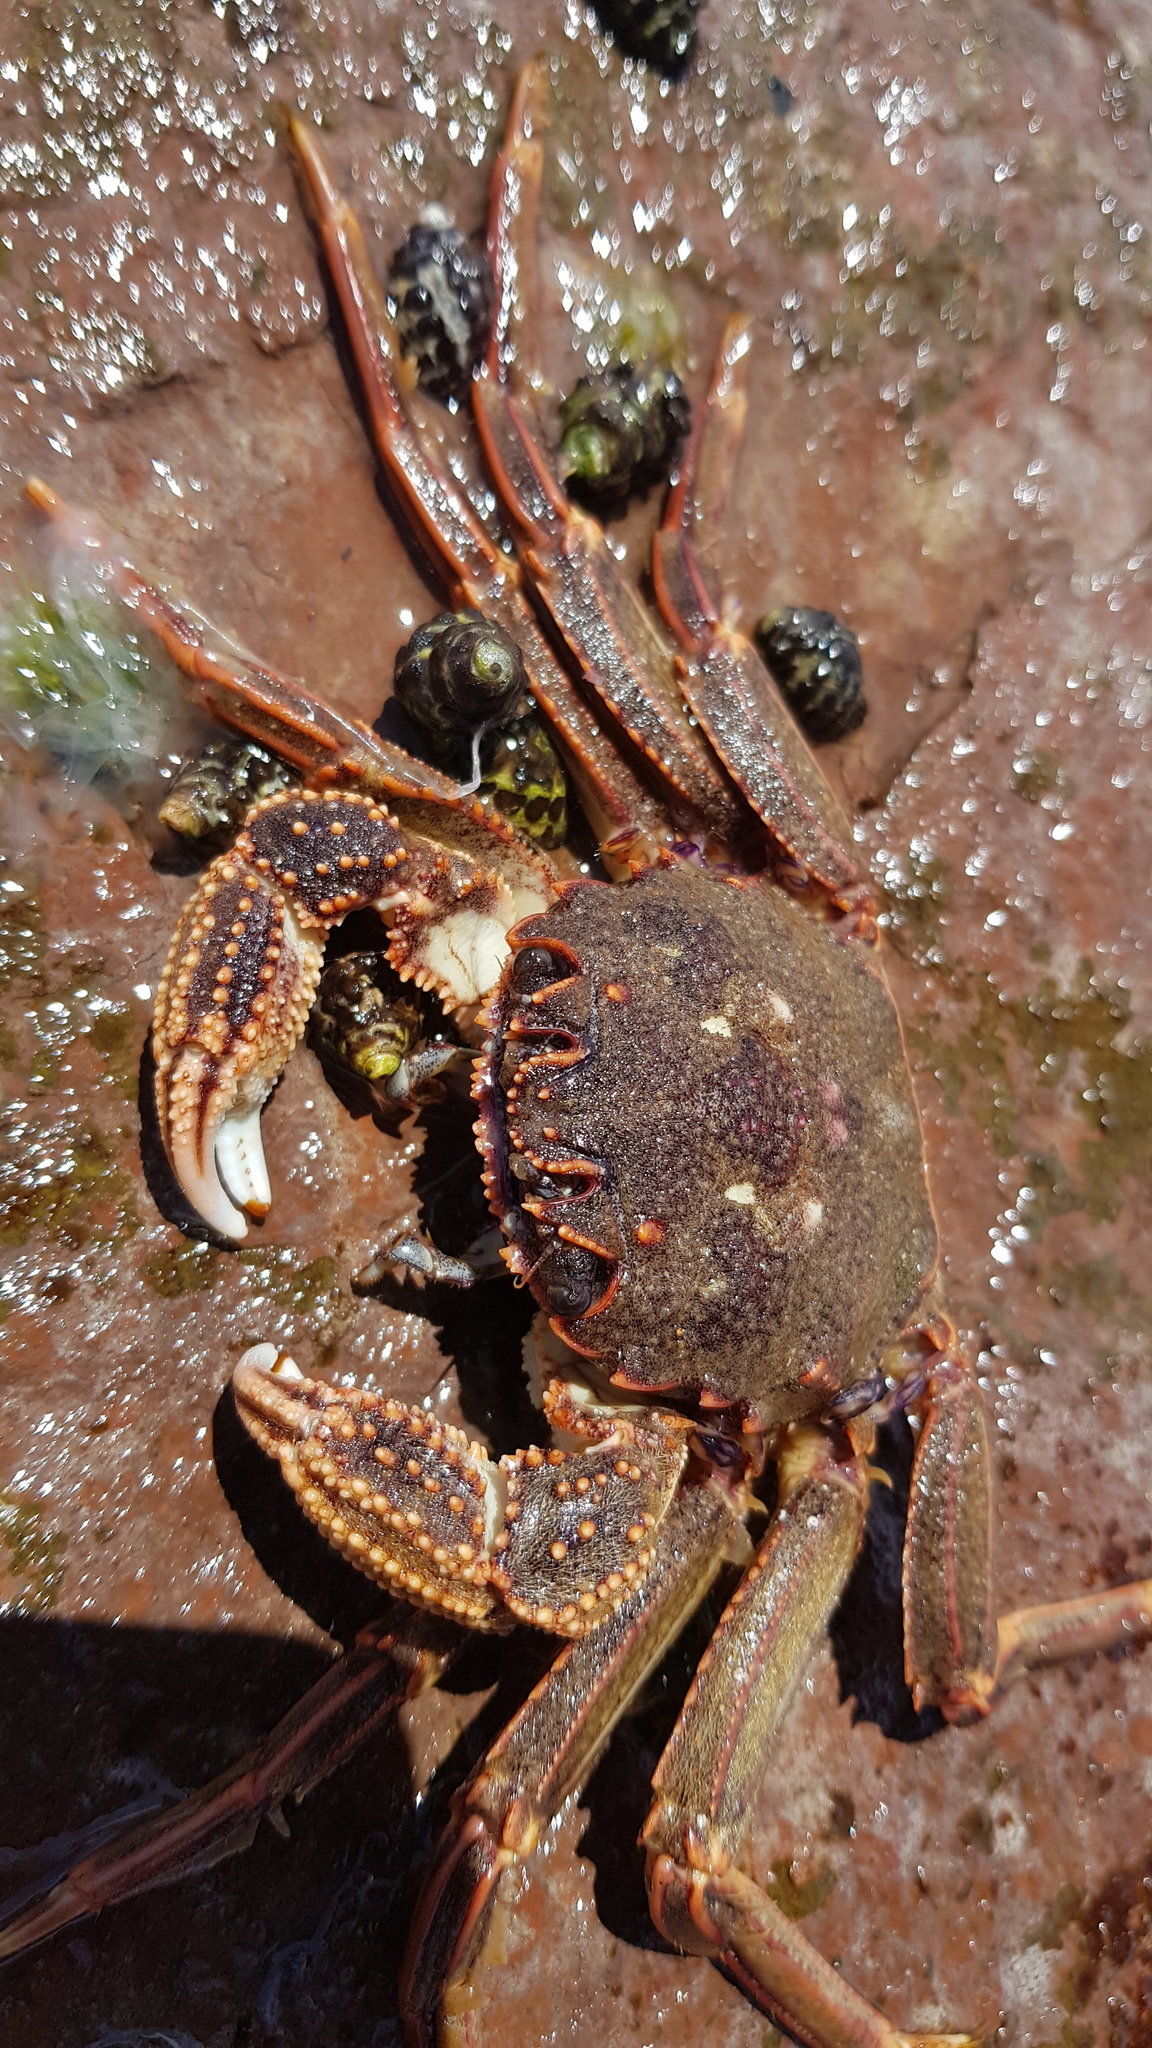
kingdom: Animalia
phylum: Arthropoda
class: Malacostraca
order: Decapoda
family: Plagusiidae
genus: Guinusia
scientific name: Guinusia chabrus
